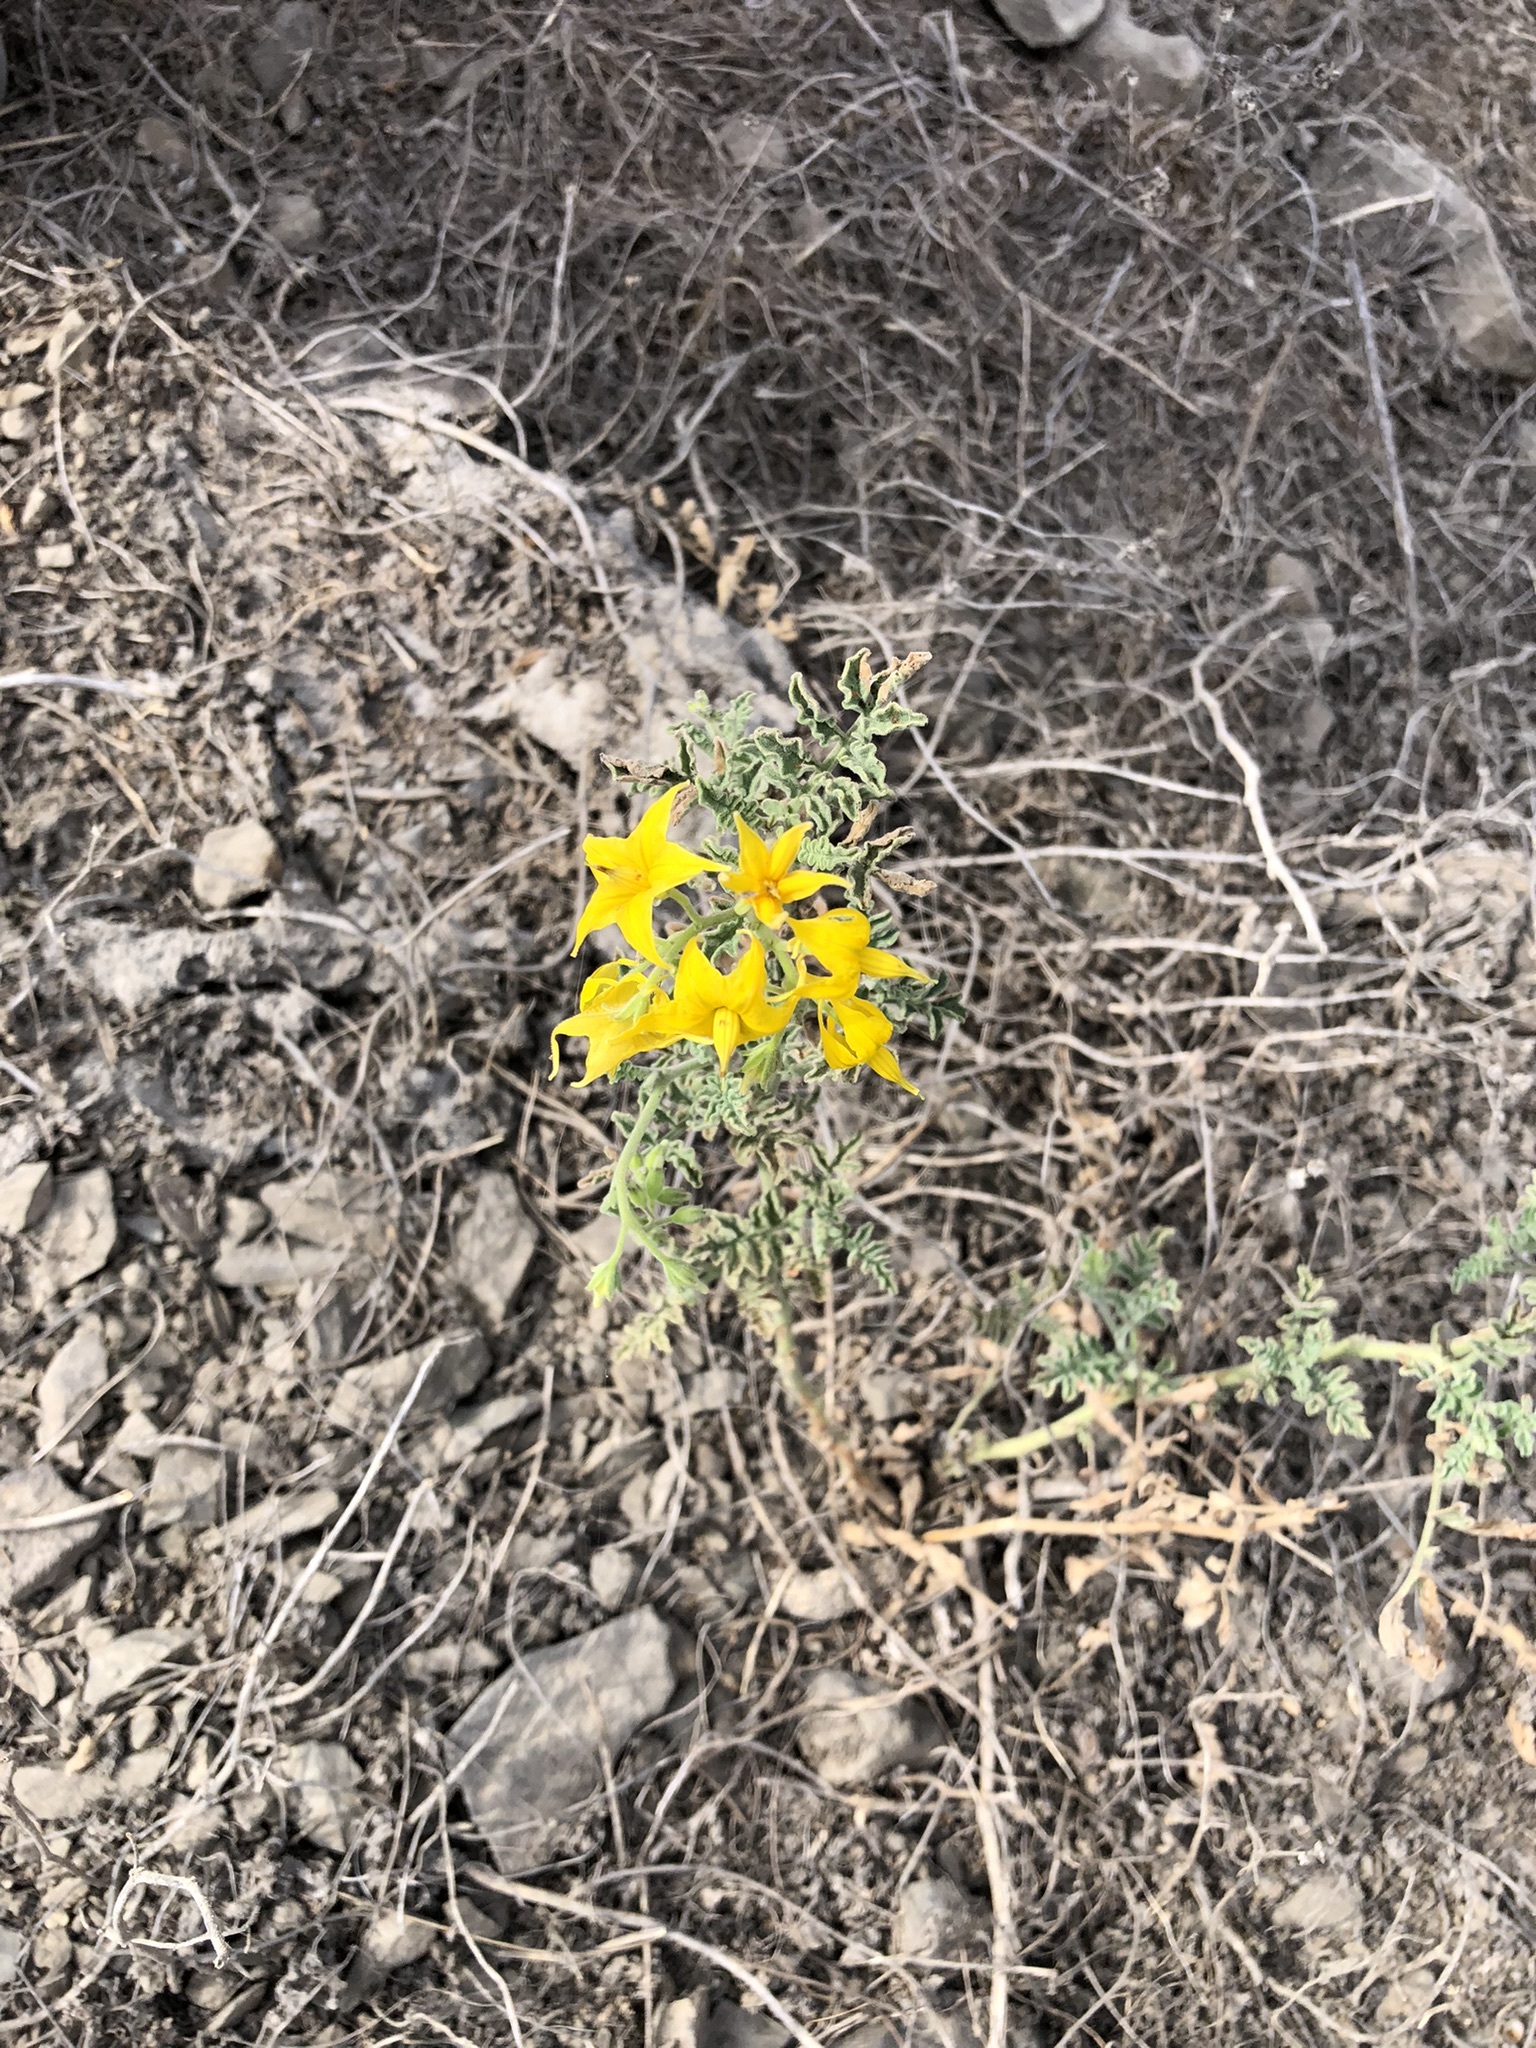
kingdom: Plantae
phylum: Tracheophyta
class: Magnoliopsida
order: Solanales
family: Solanaceae
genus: Solanum
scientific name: Solanum corneliomulleri
